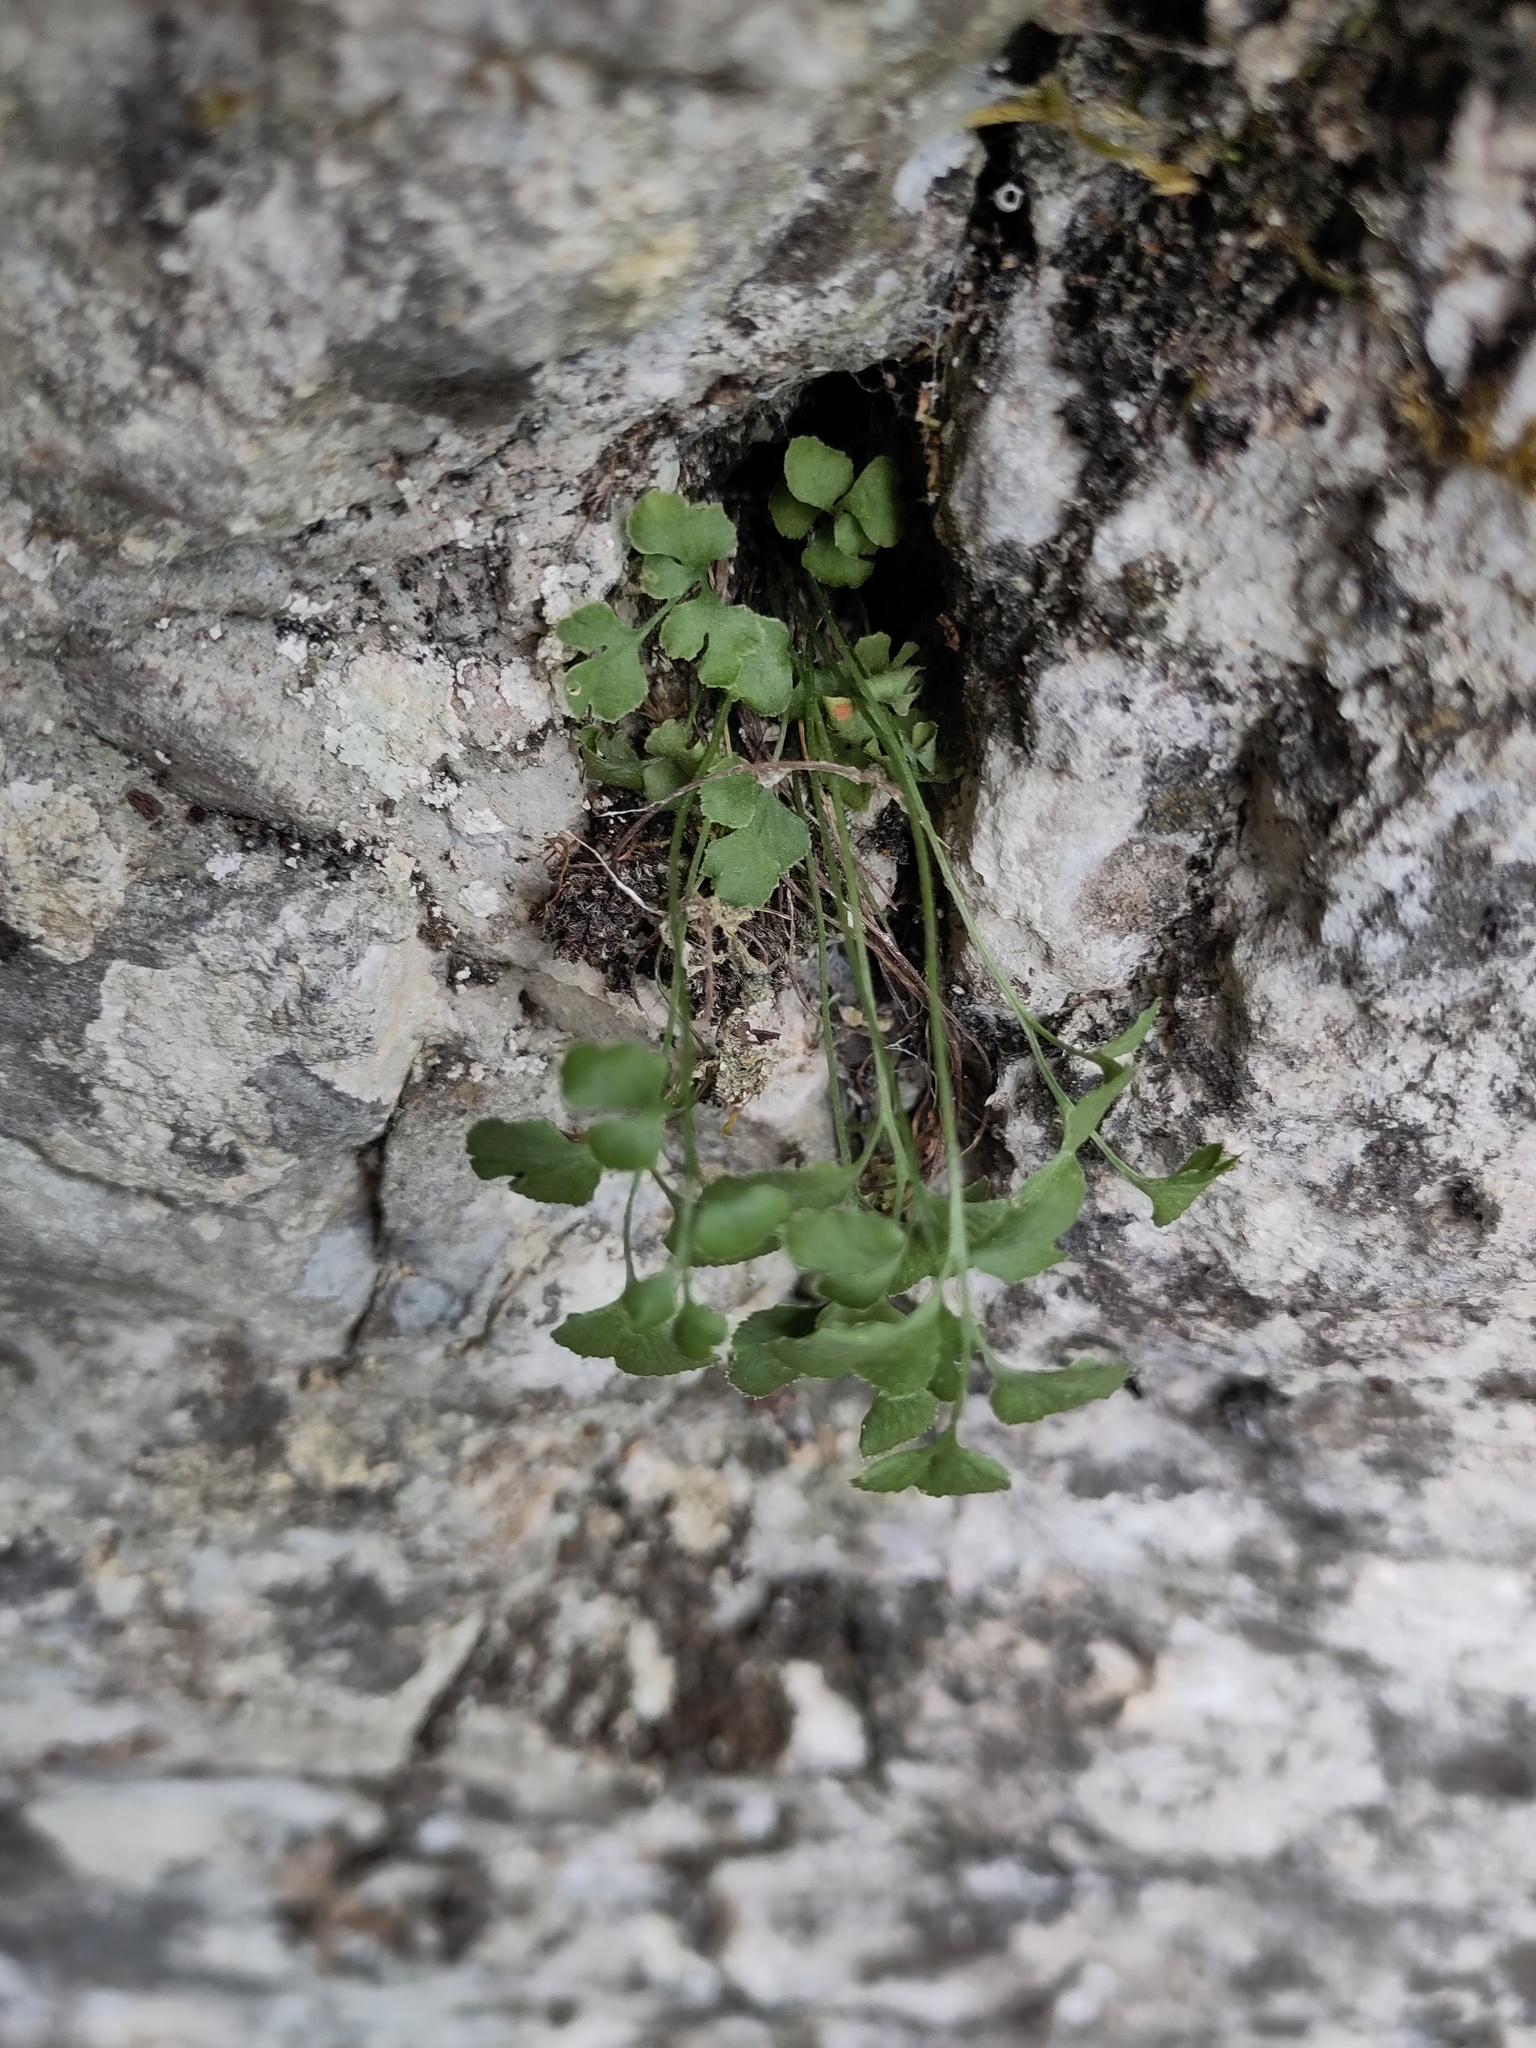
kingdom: Plantae
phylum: Tracheophyta
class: Polypodiopsida
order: Polypodiales
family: Aspleniaceae
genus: Asplenium
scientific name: Asplenium ruta-muraria
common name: Wall-rue
